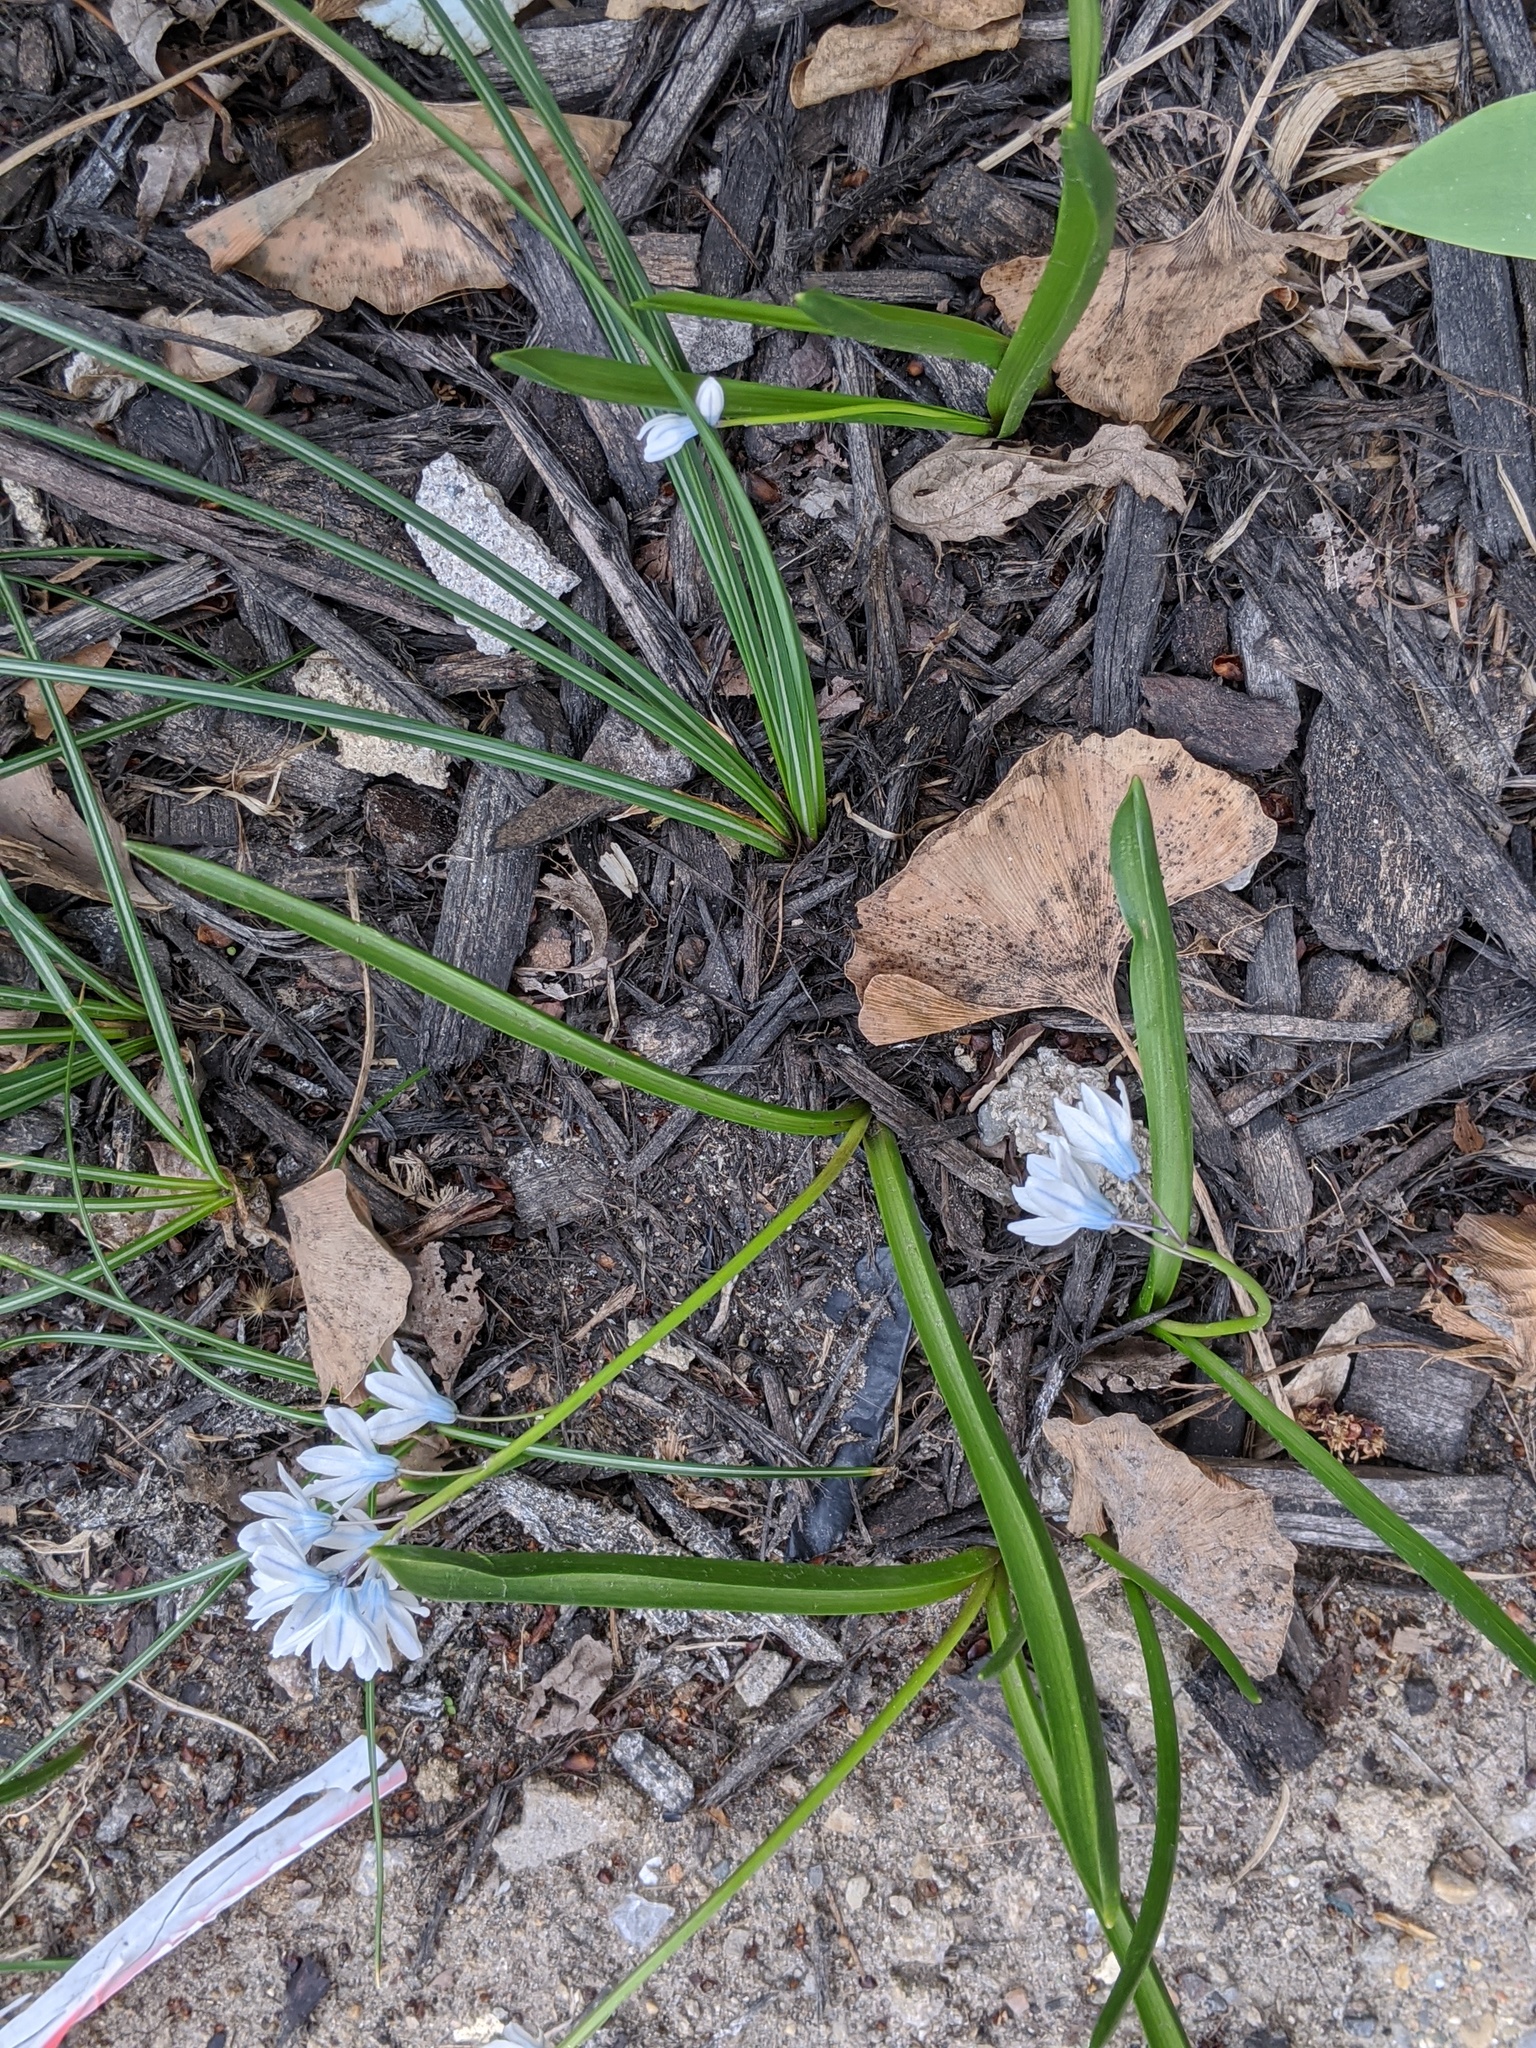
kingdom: Plantae
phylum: Tracheophyta
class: Liliopsida
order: Asparagales
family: Asparagaceae
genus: Puschkinia
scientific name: Puschkinia scilloides
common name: Striped squill
